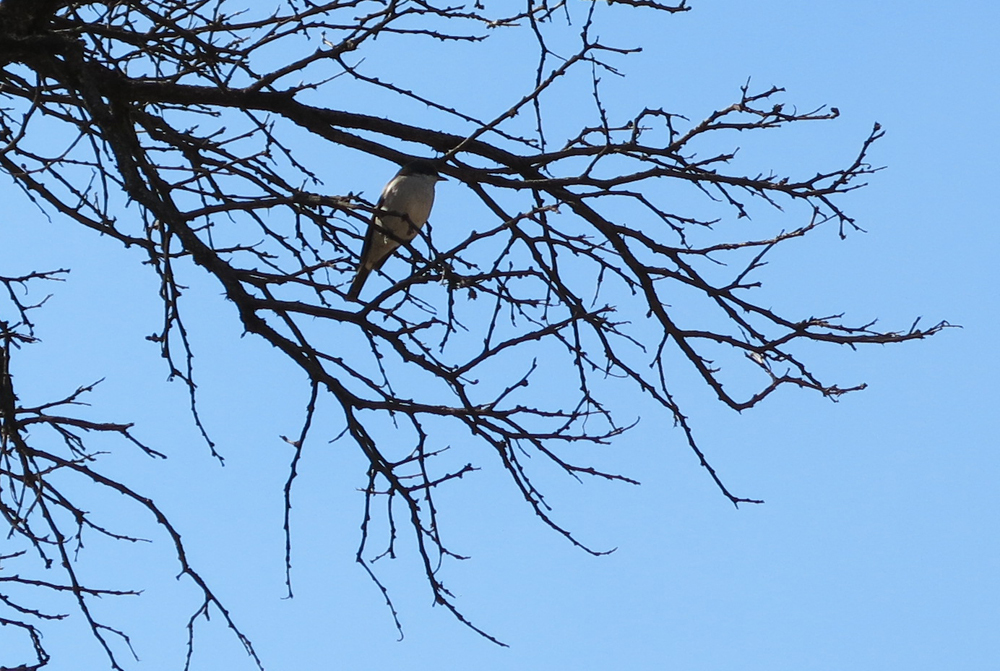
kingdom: Animalia
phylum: Chordata
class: Aves
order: Passeriformes
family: Muscicapidae
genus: Sigelus
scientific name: Sigelus silens
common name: Fiscal flycatcher
